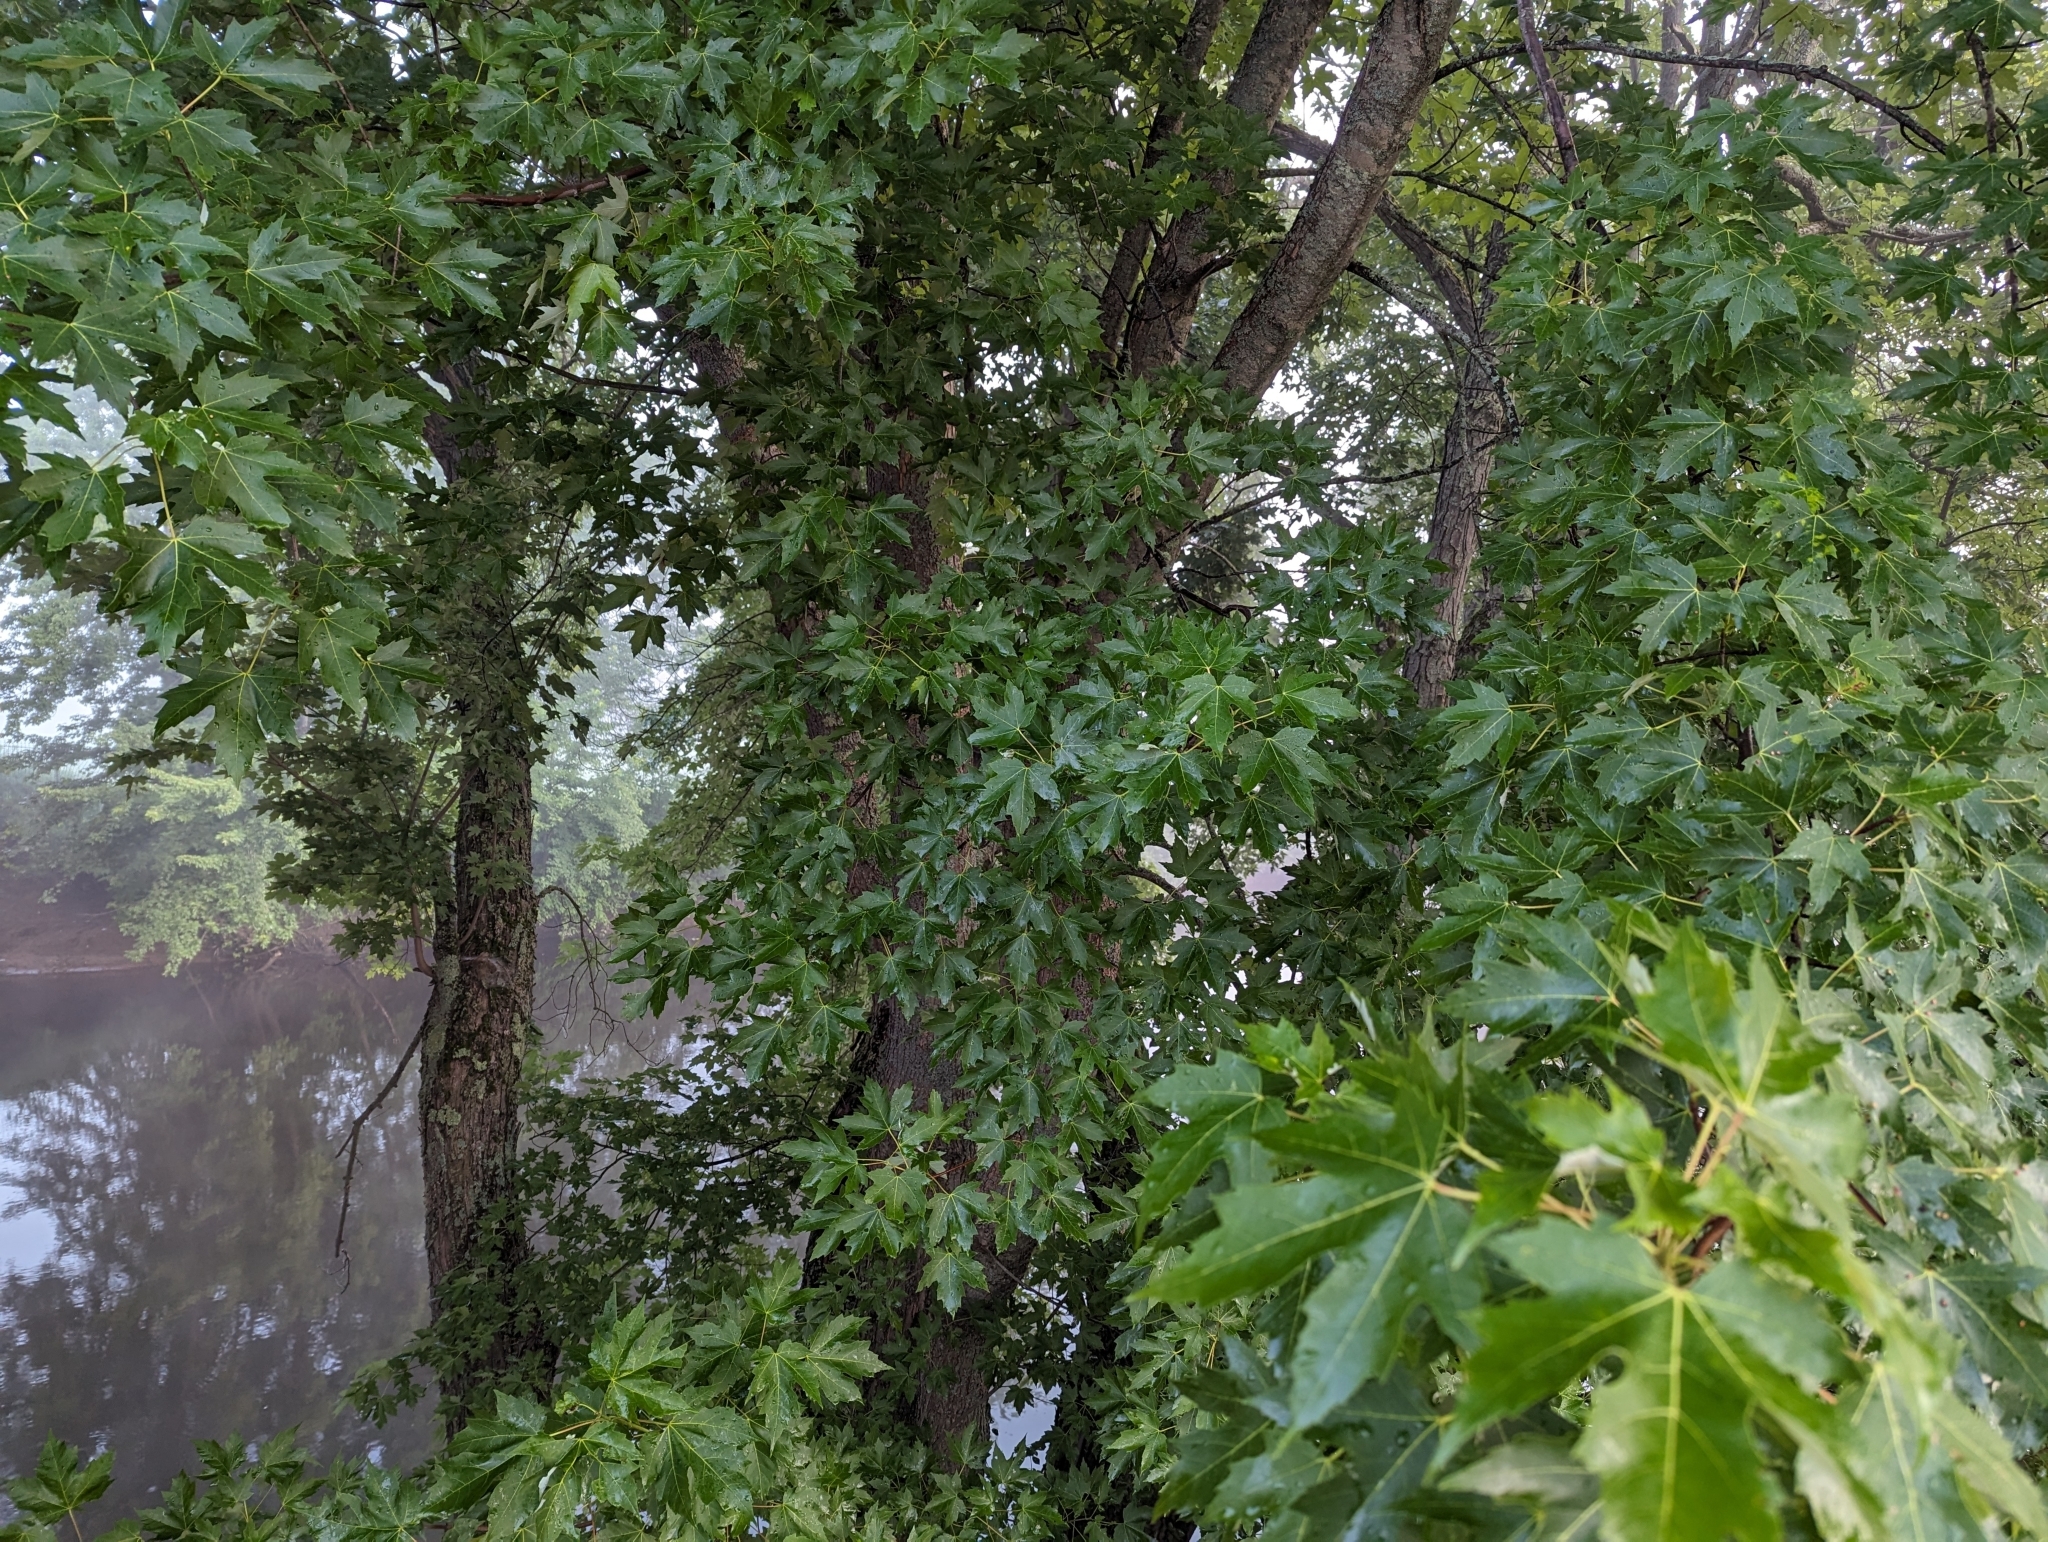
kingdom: Plantae
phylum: Tracheophyta
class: Magnoliopsida
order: Sapindales
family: Sapindaceae
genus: Acer
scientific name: Acer saccharinum
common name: Silver maple
